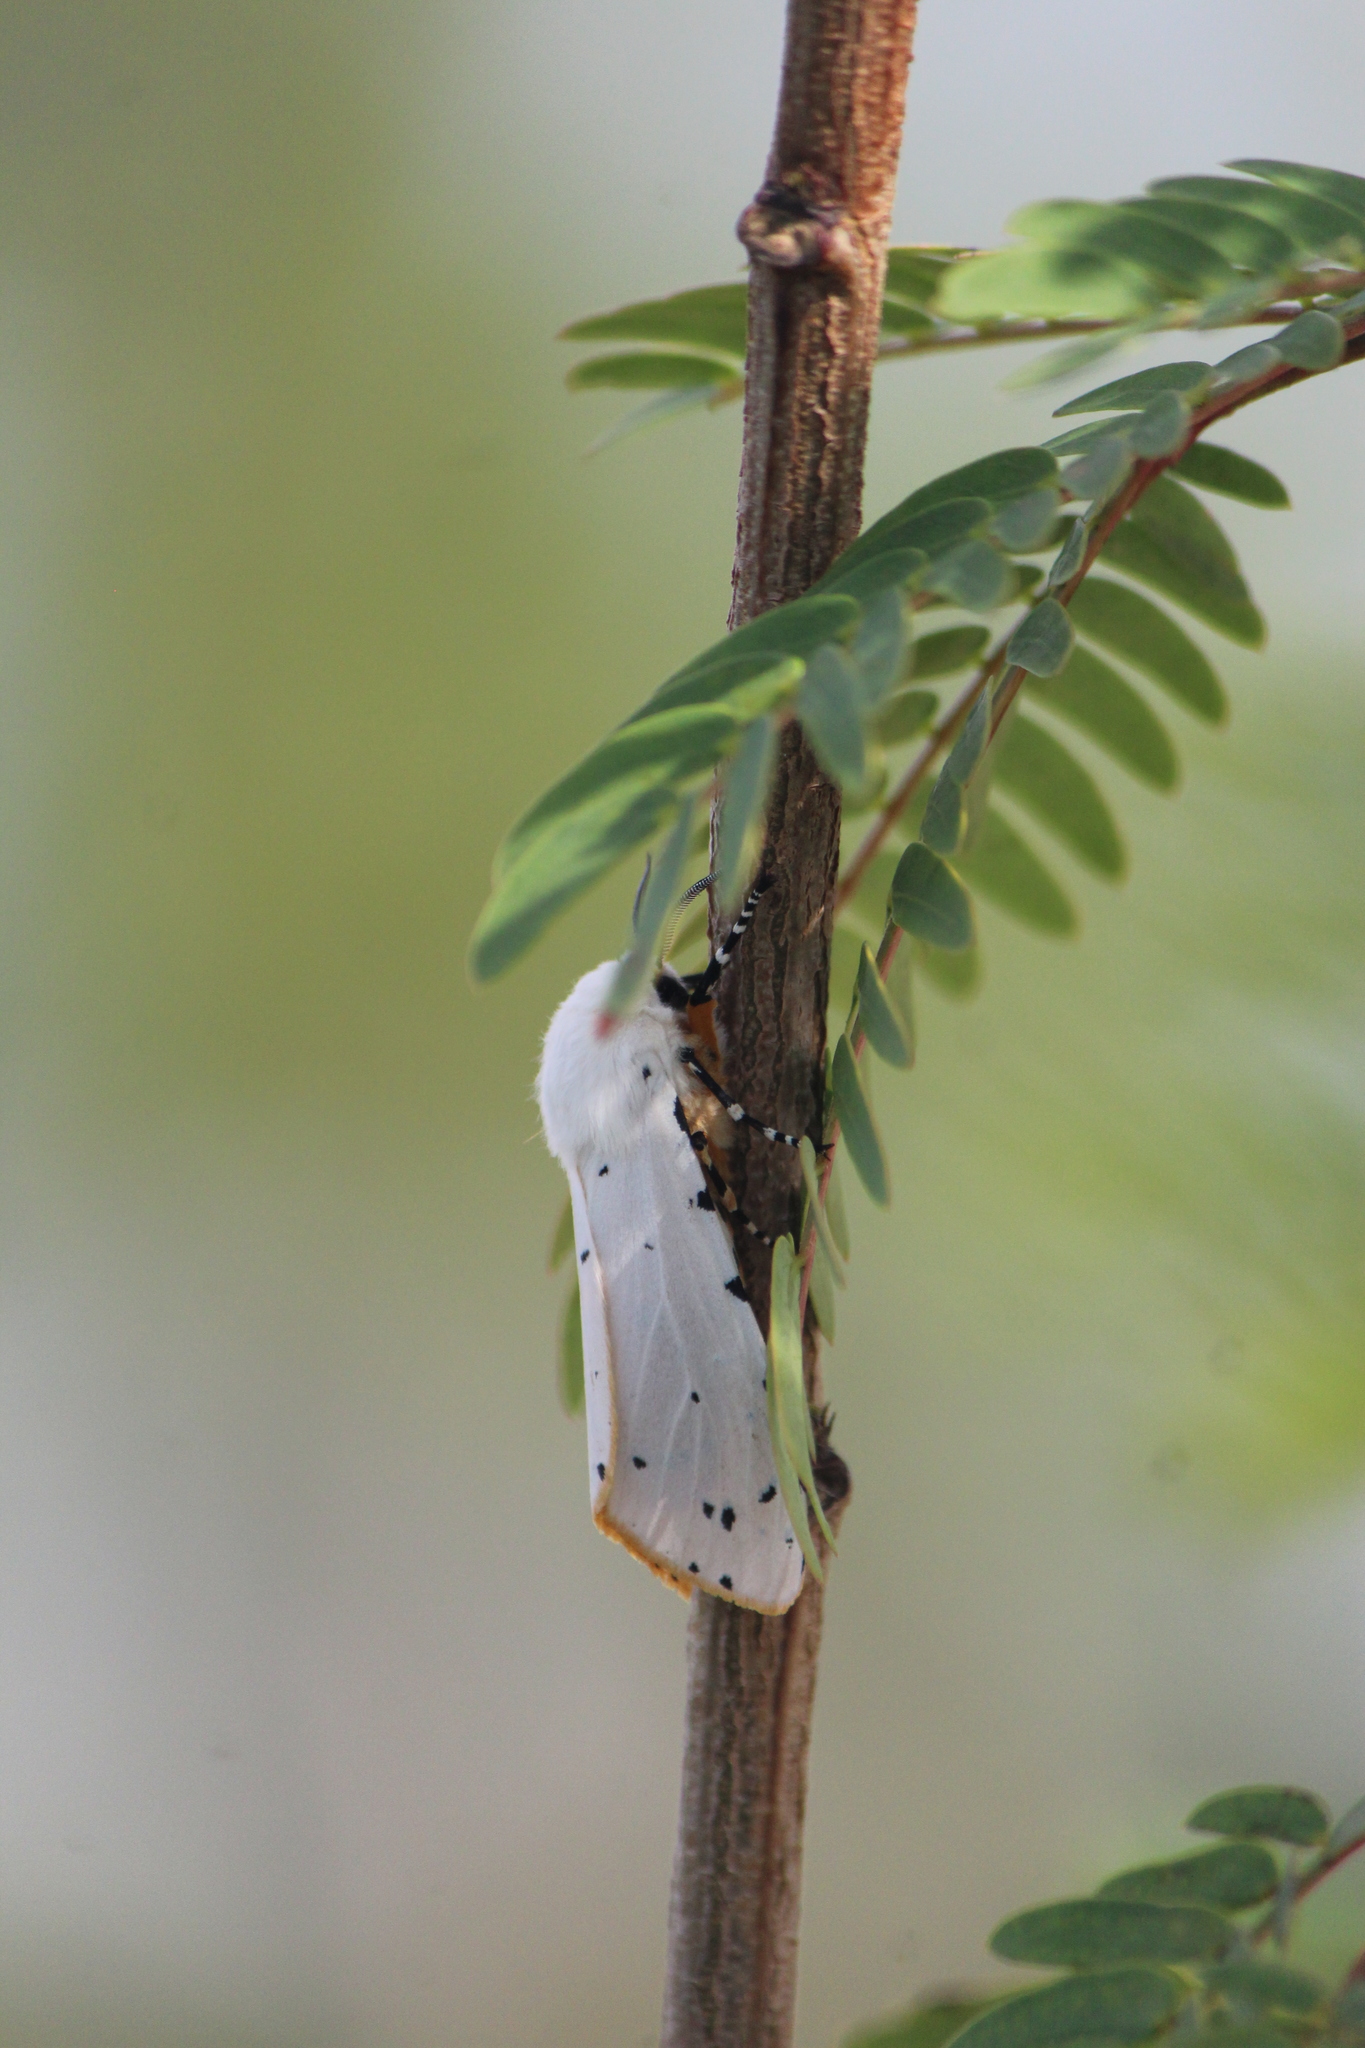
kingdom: Animalia
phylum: Arthropoda
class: Insecta
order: Lepidoptera
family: Erebidae
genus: Estigmene
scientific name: Estigmene acrea
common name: Salt marsh moth
